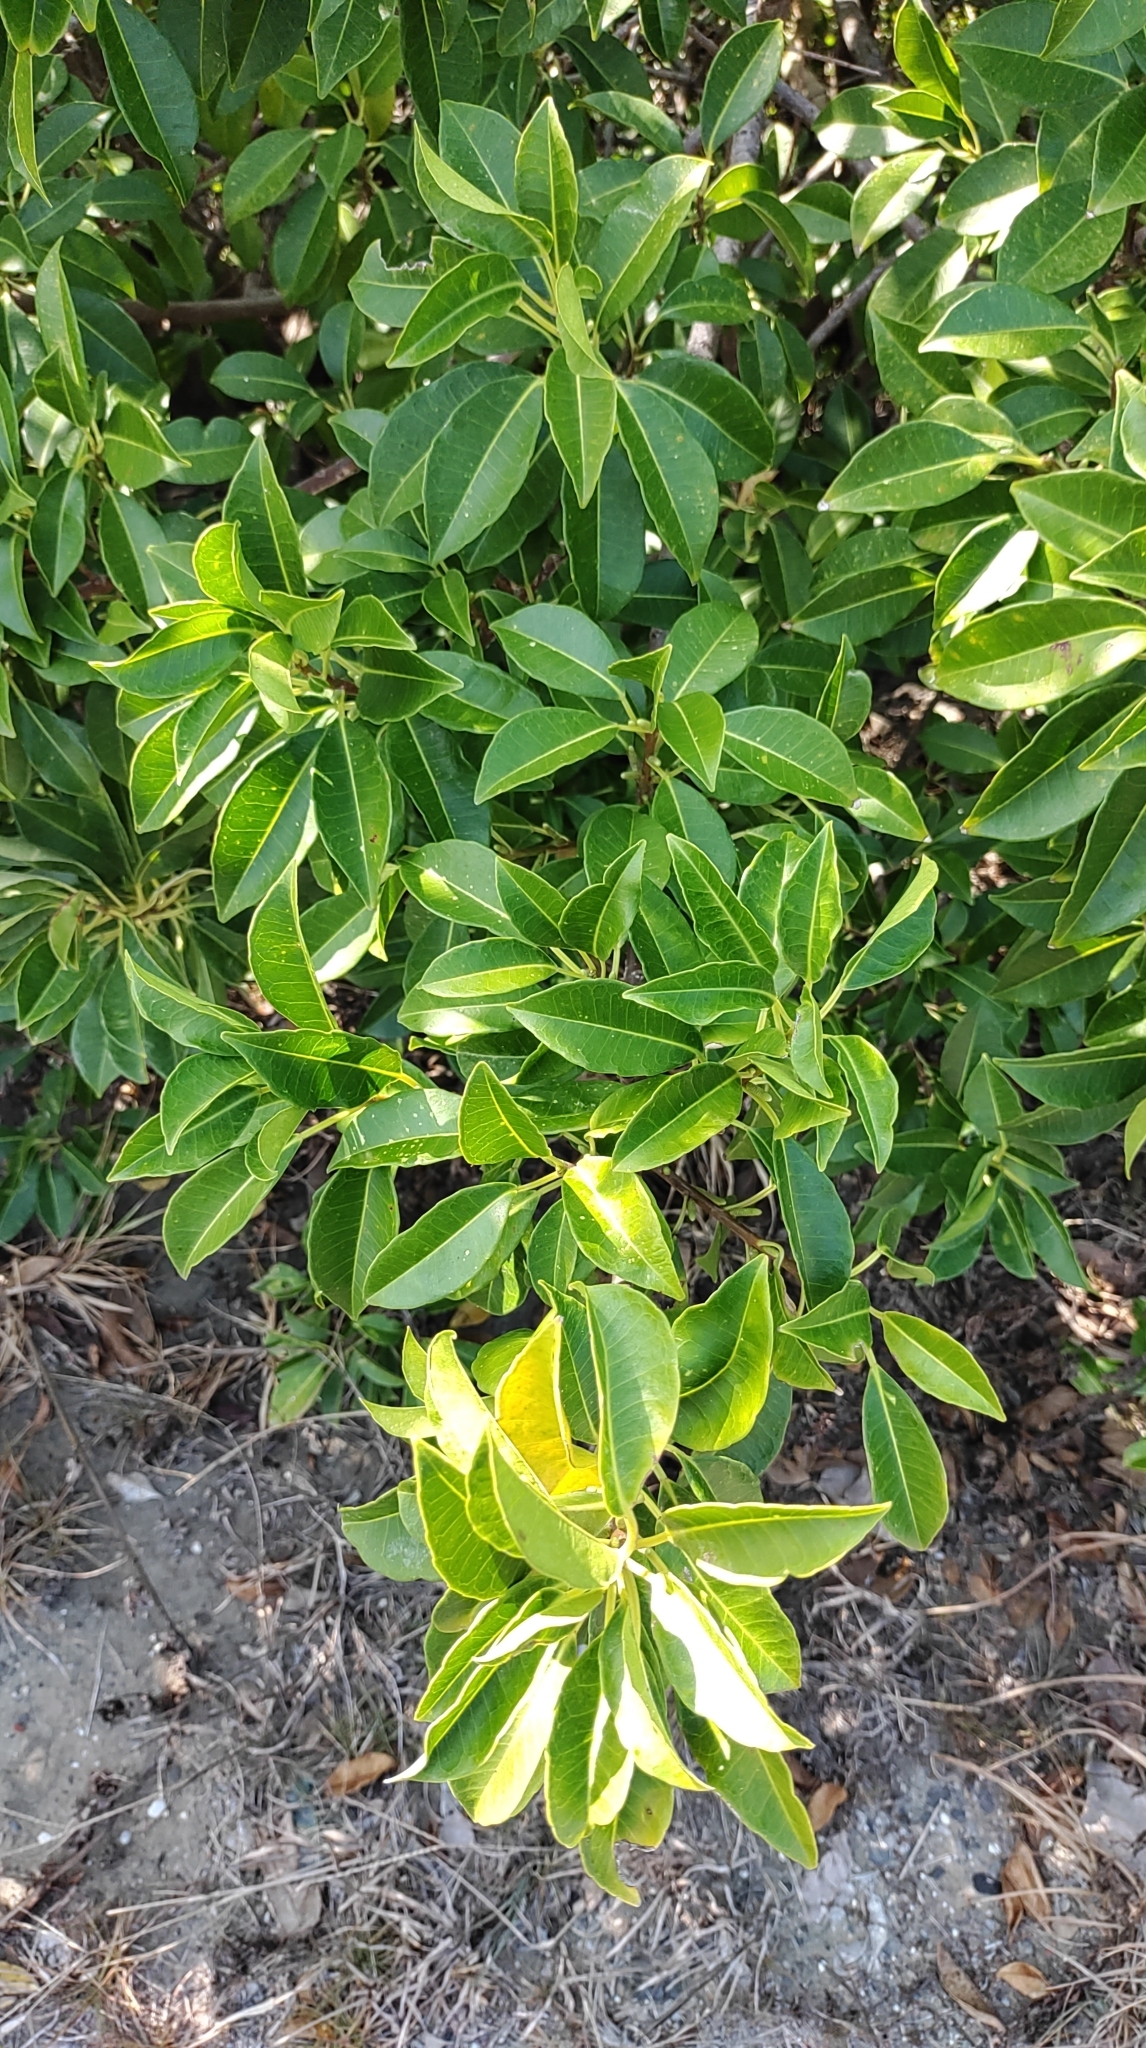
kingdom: Plantae
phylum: Tracheophyta
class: Magnoliopsida
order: Malpighiales
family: Euphorbiaceae
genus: Excoecaria
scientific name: Excoecaria agallocha
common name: River poisontree
